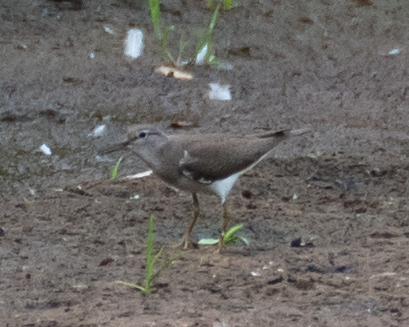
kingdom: Animalia
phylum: Chordata
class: Aves
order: Charadriiformes
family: Scolopacidae
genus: Actitis
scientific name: Actitis hypoleucos
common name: Common sandpiper
